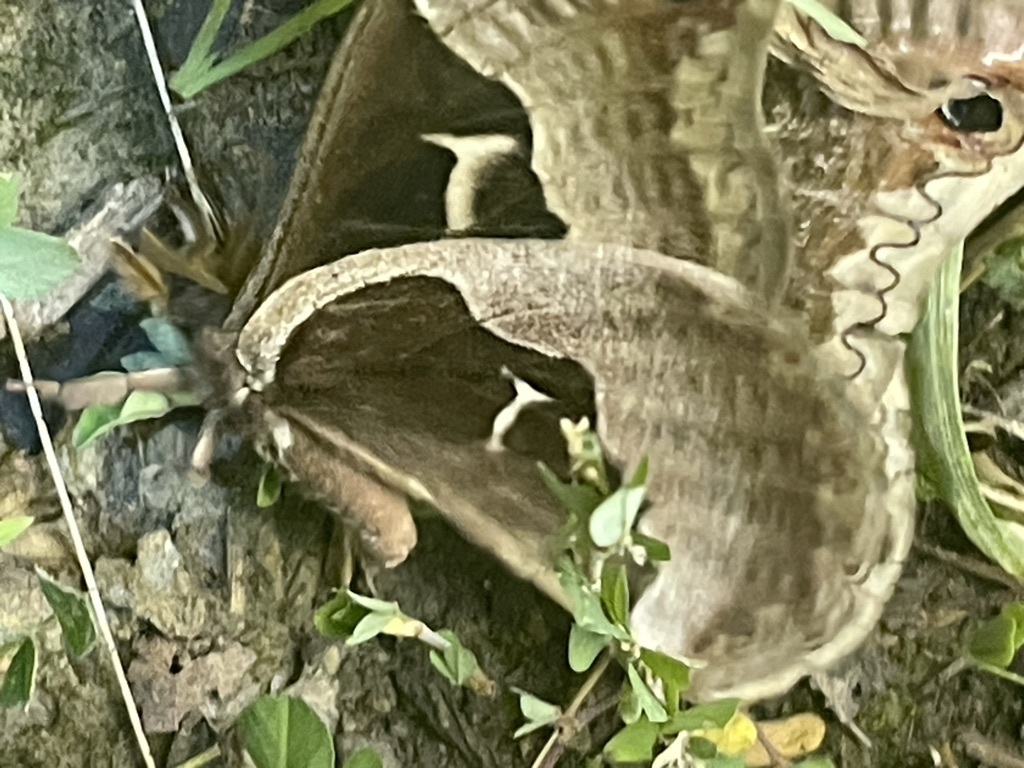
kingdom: Animalia
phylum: Arthropoda
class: Insecta
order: Lepidoptera
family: Saturniidae
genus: Callosamia
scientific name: Callosamia angulifera
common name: Tulip tree silkmoth
